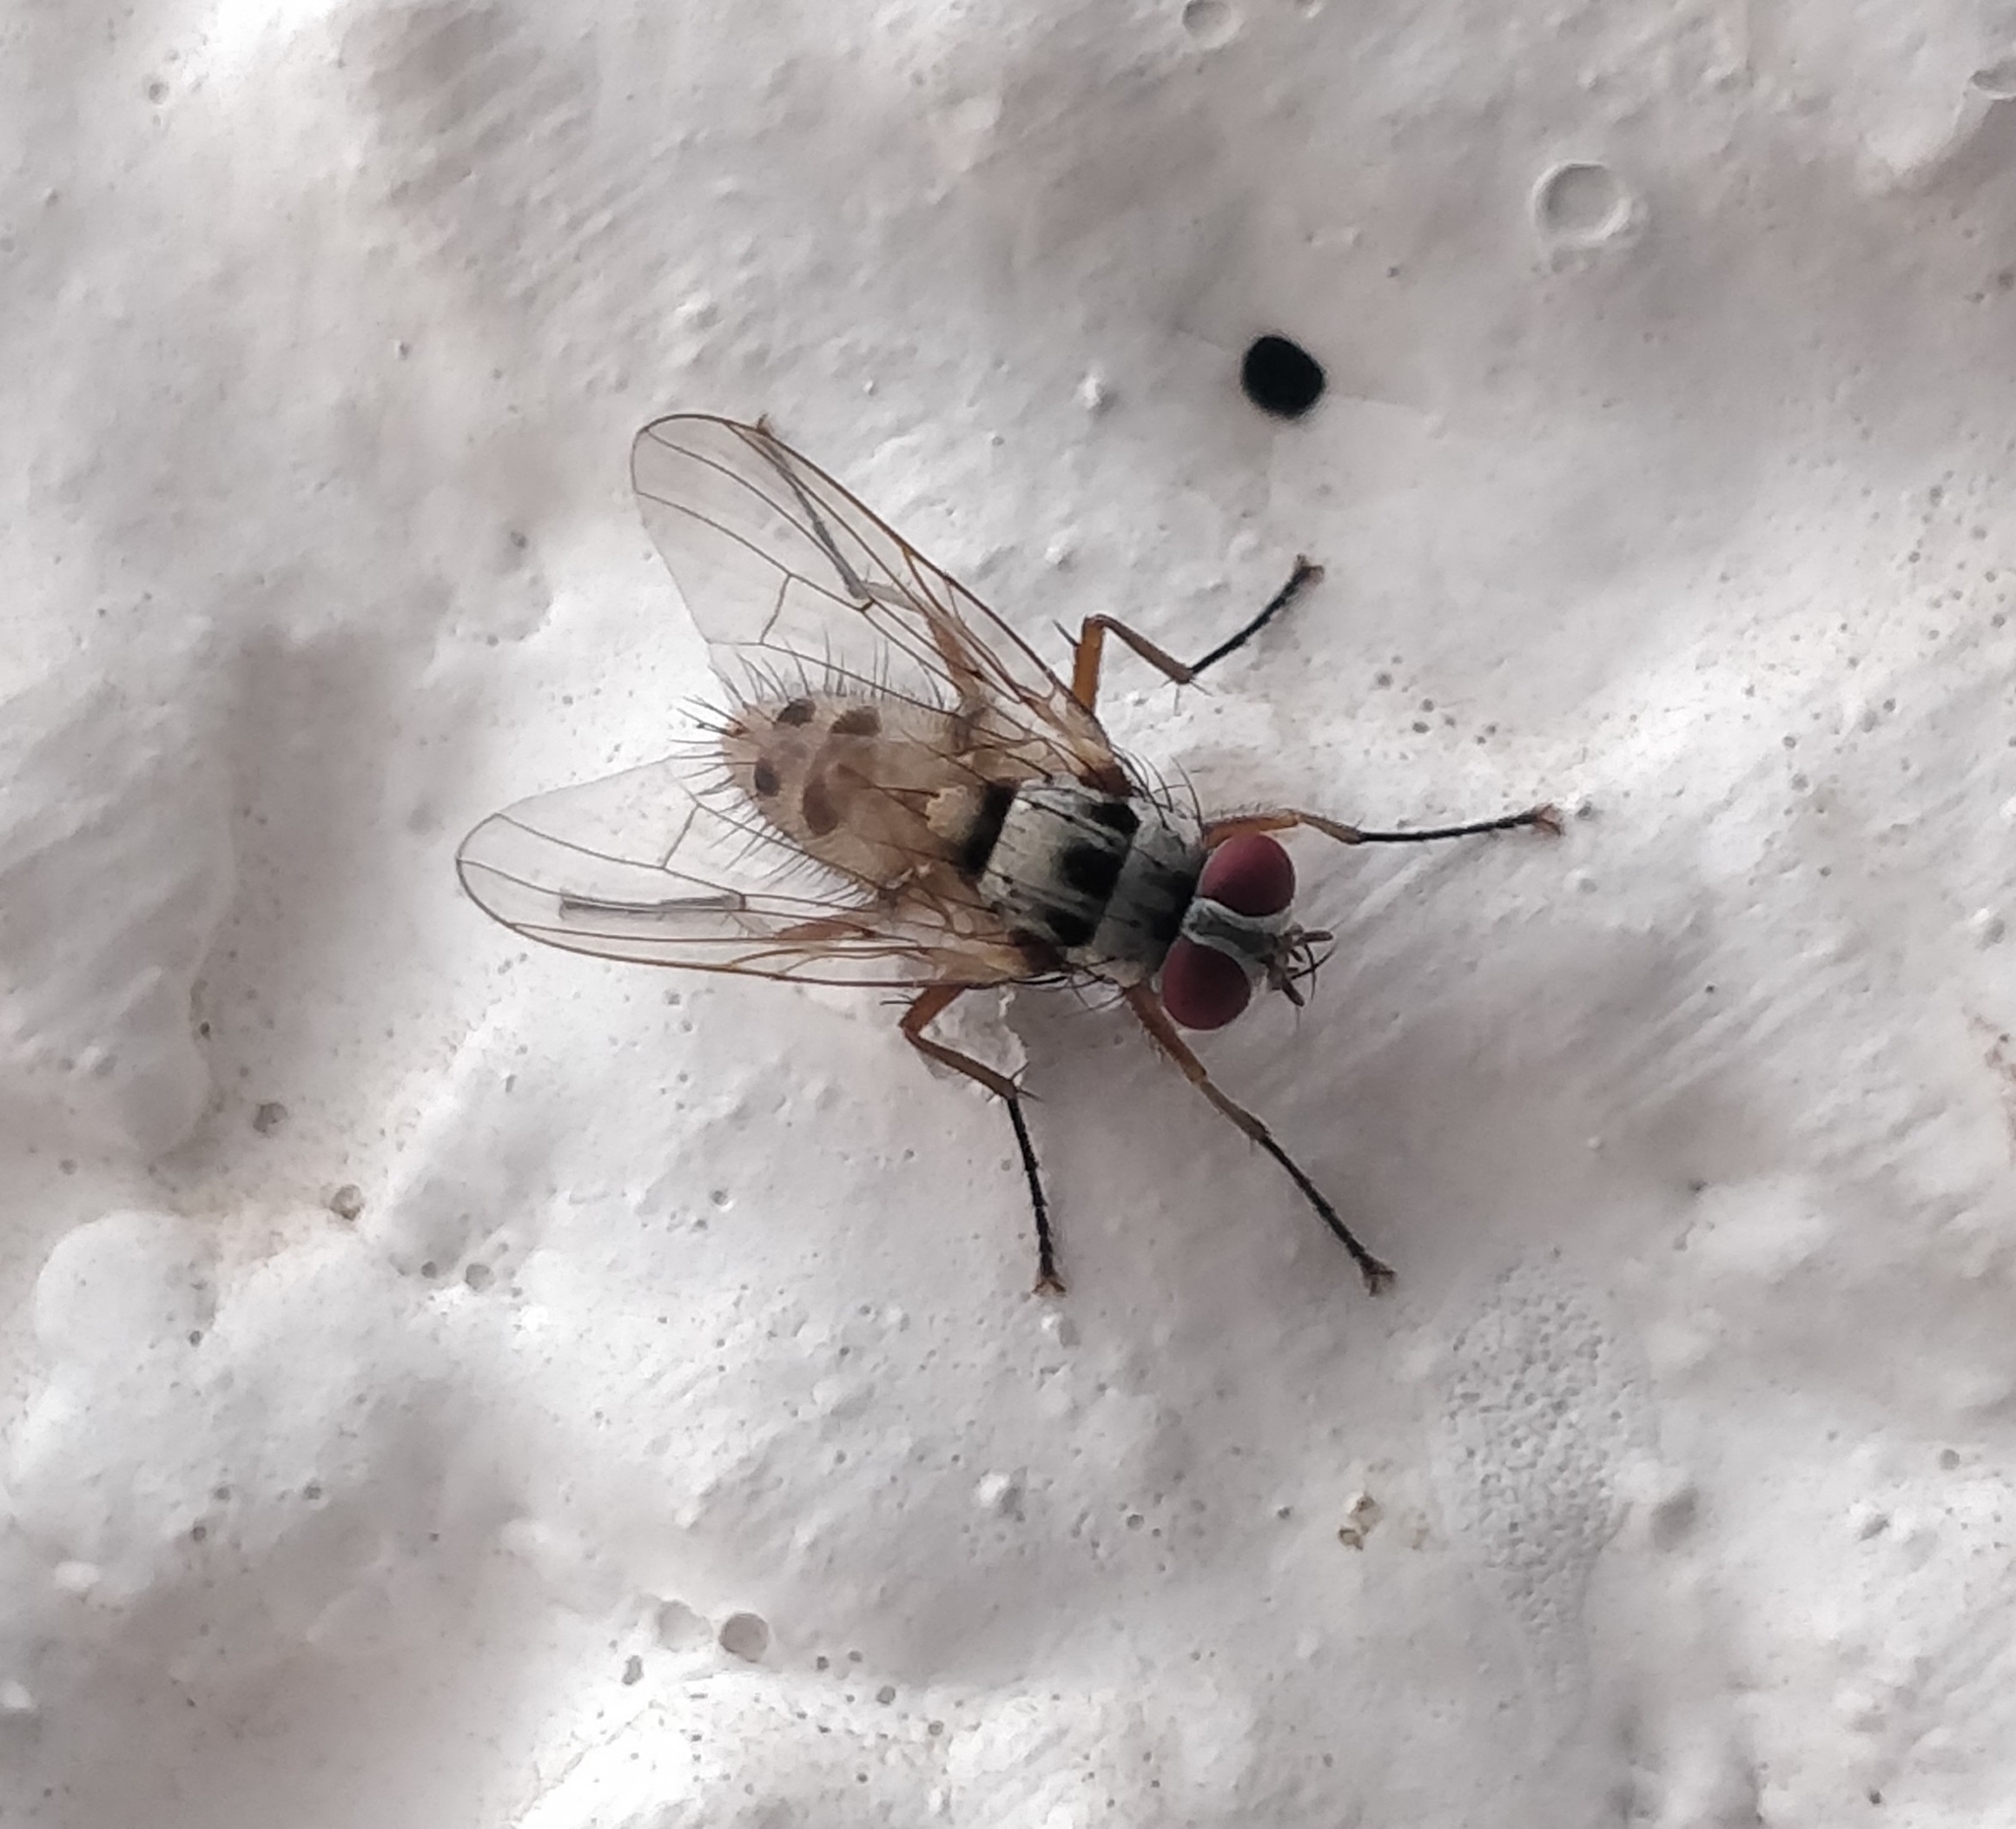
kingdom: Animalia
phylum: Arthropoda
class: Insecta
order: Diptera
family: Muscidae
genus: Helina
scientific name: Helina clara
